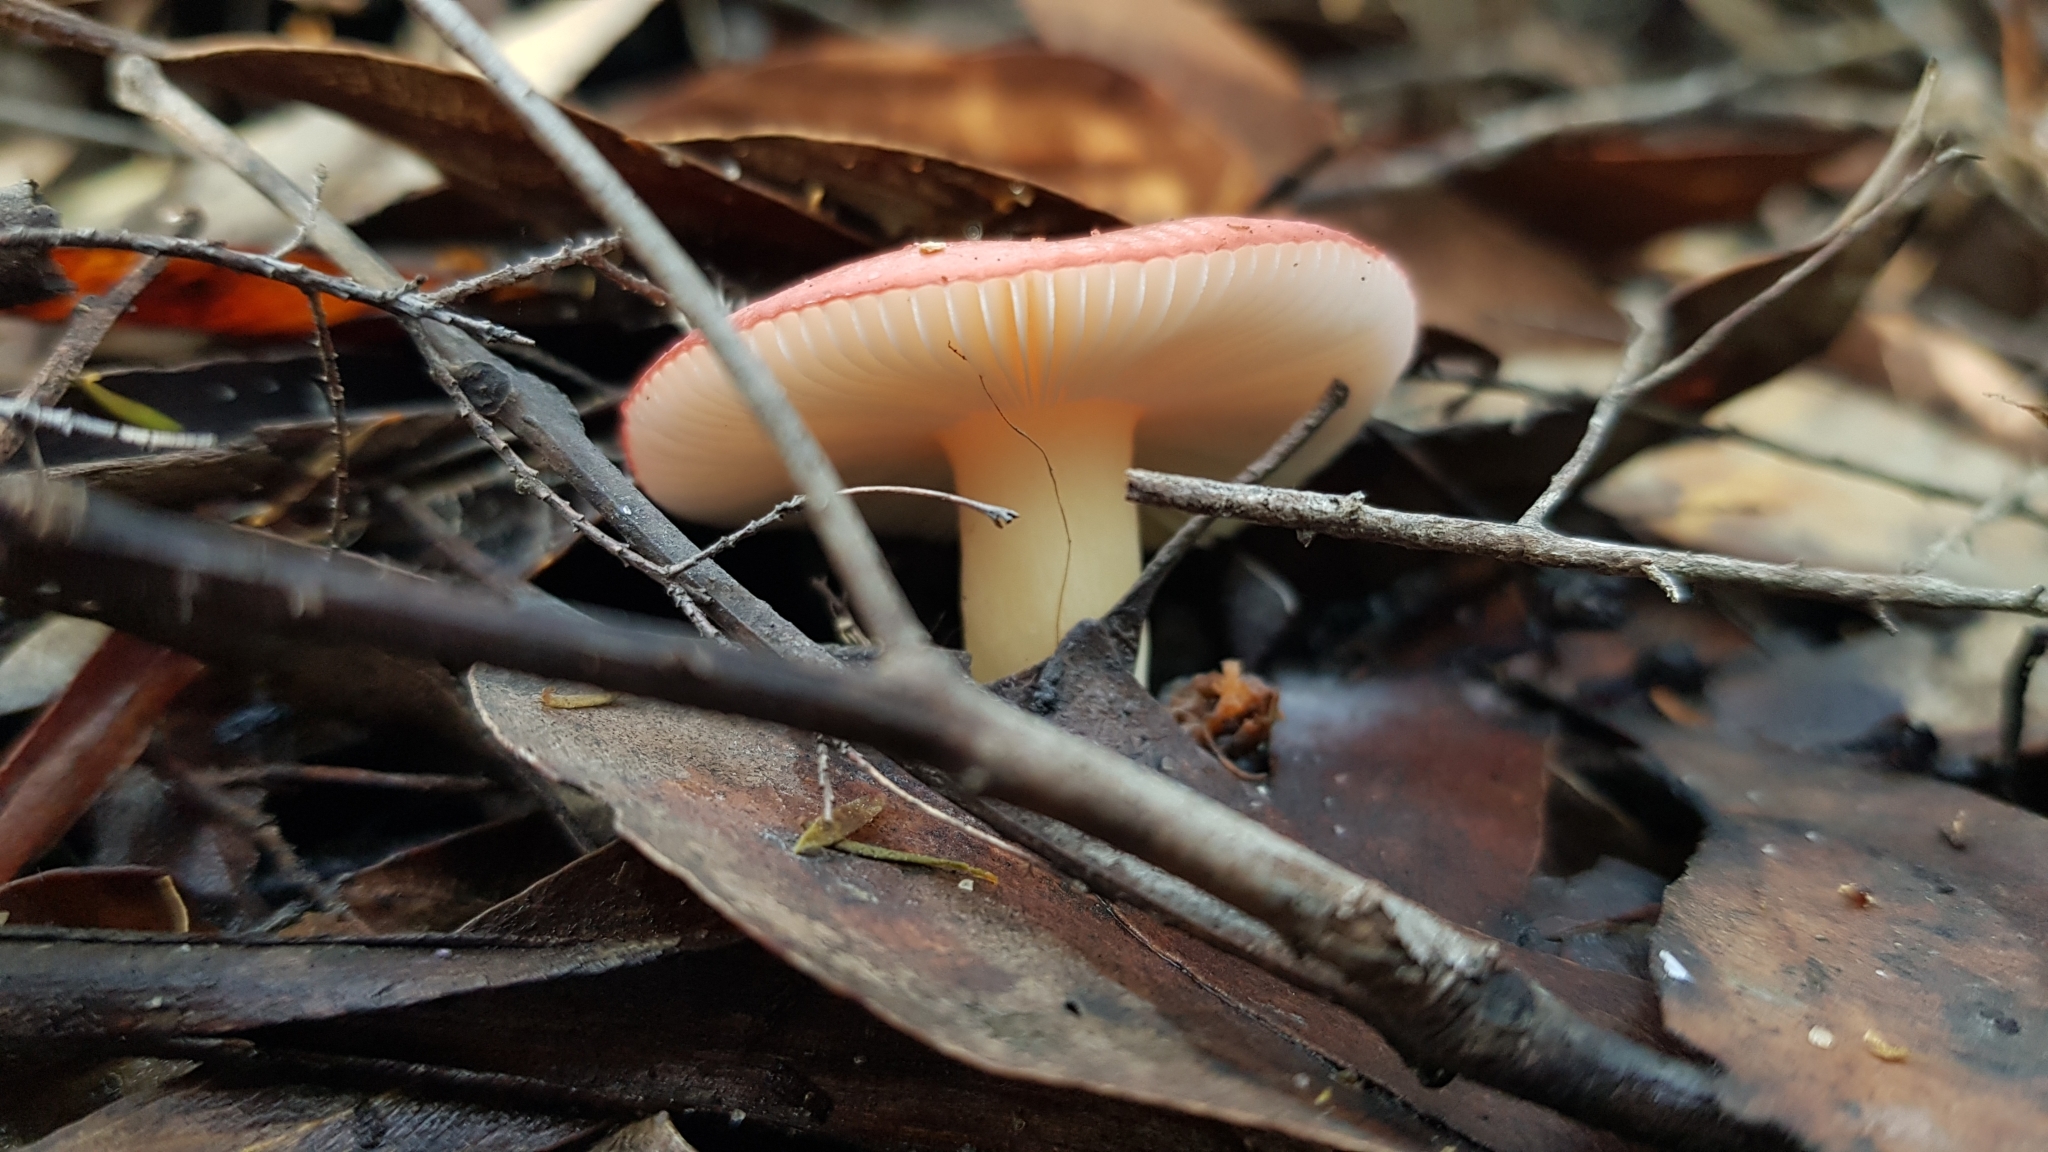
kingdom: Fungi
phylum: Basidiomycota
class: Agaricomycetes
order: Russulales
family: Russulaceae
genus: Russula
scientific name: Russula persanguinea
